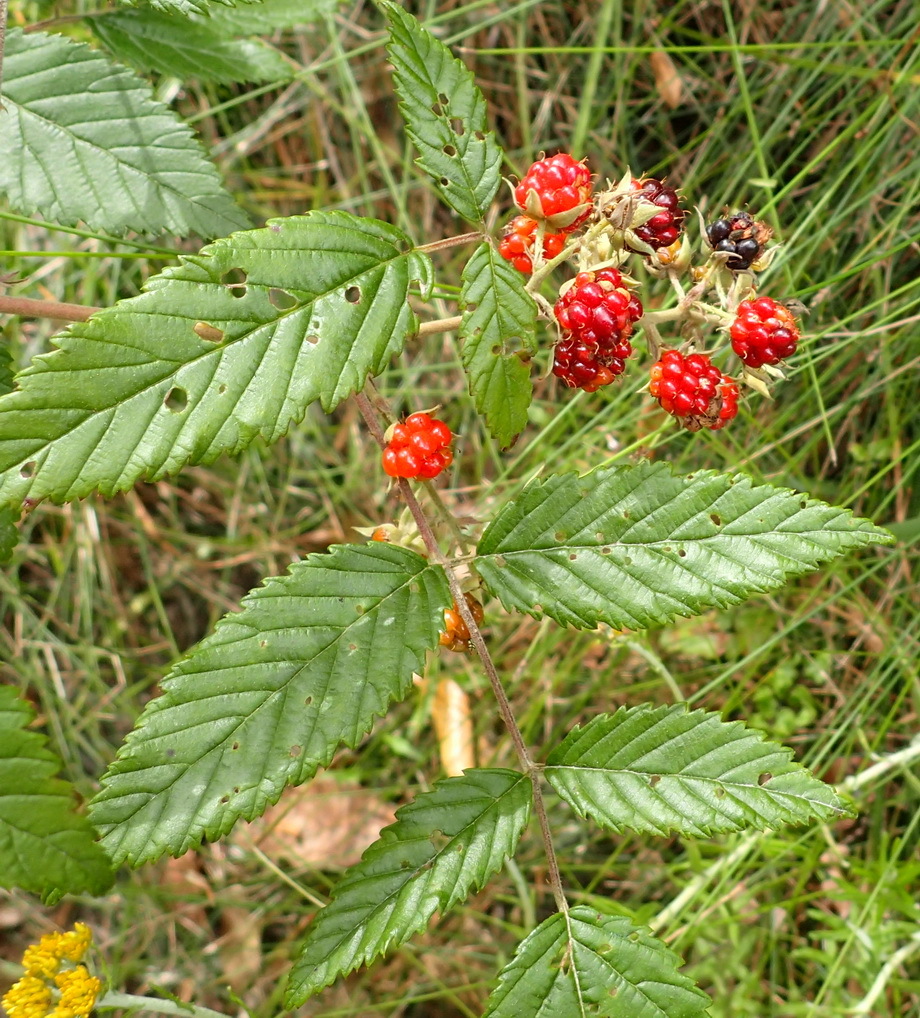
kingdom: Plantae
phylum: Tracheophyta
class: Magnoliopsida
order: Rosales
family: Rosaceae
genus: Rubus
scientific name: Rubus pinnatus
